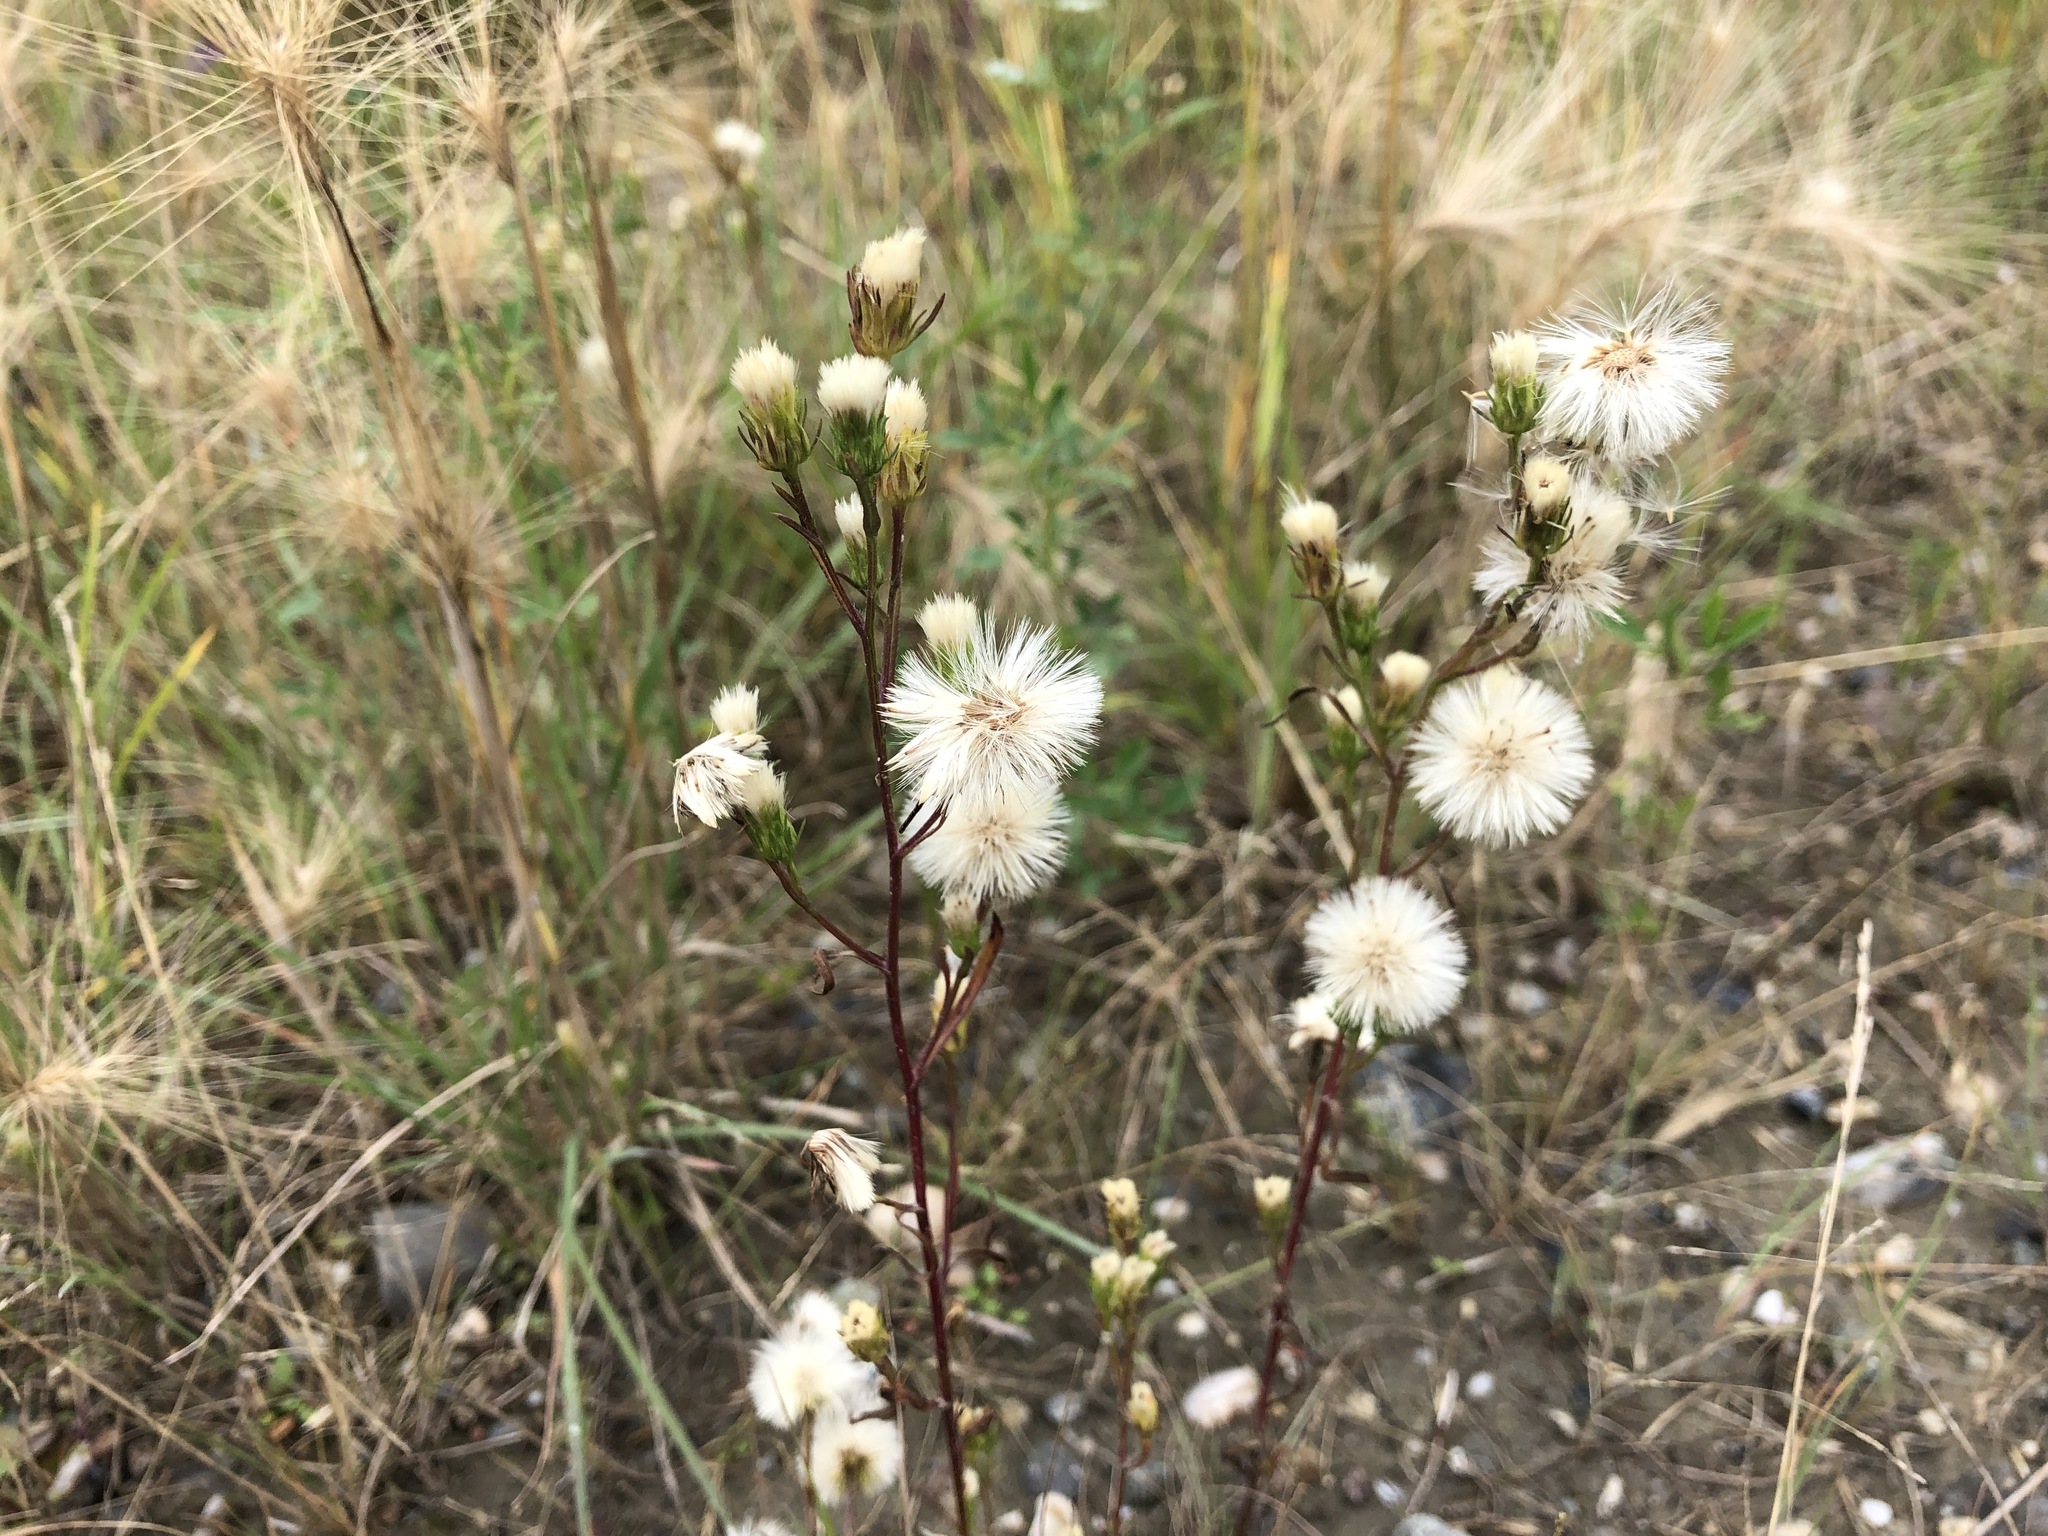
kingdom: Plantae
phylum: Tracheophyta
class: Magnoliopsida
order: Asterales
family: Asteraceae
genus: Symphyotrichum
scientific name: Symphyotrichum ciliatum
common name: Rayless annual aster
